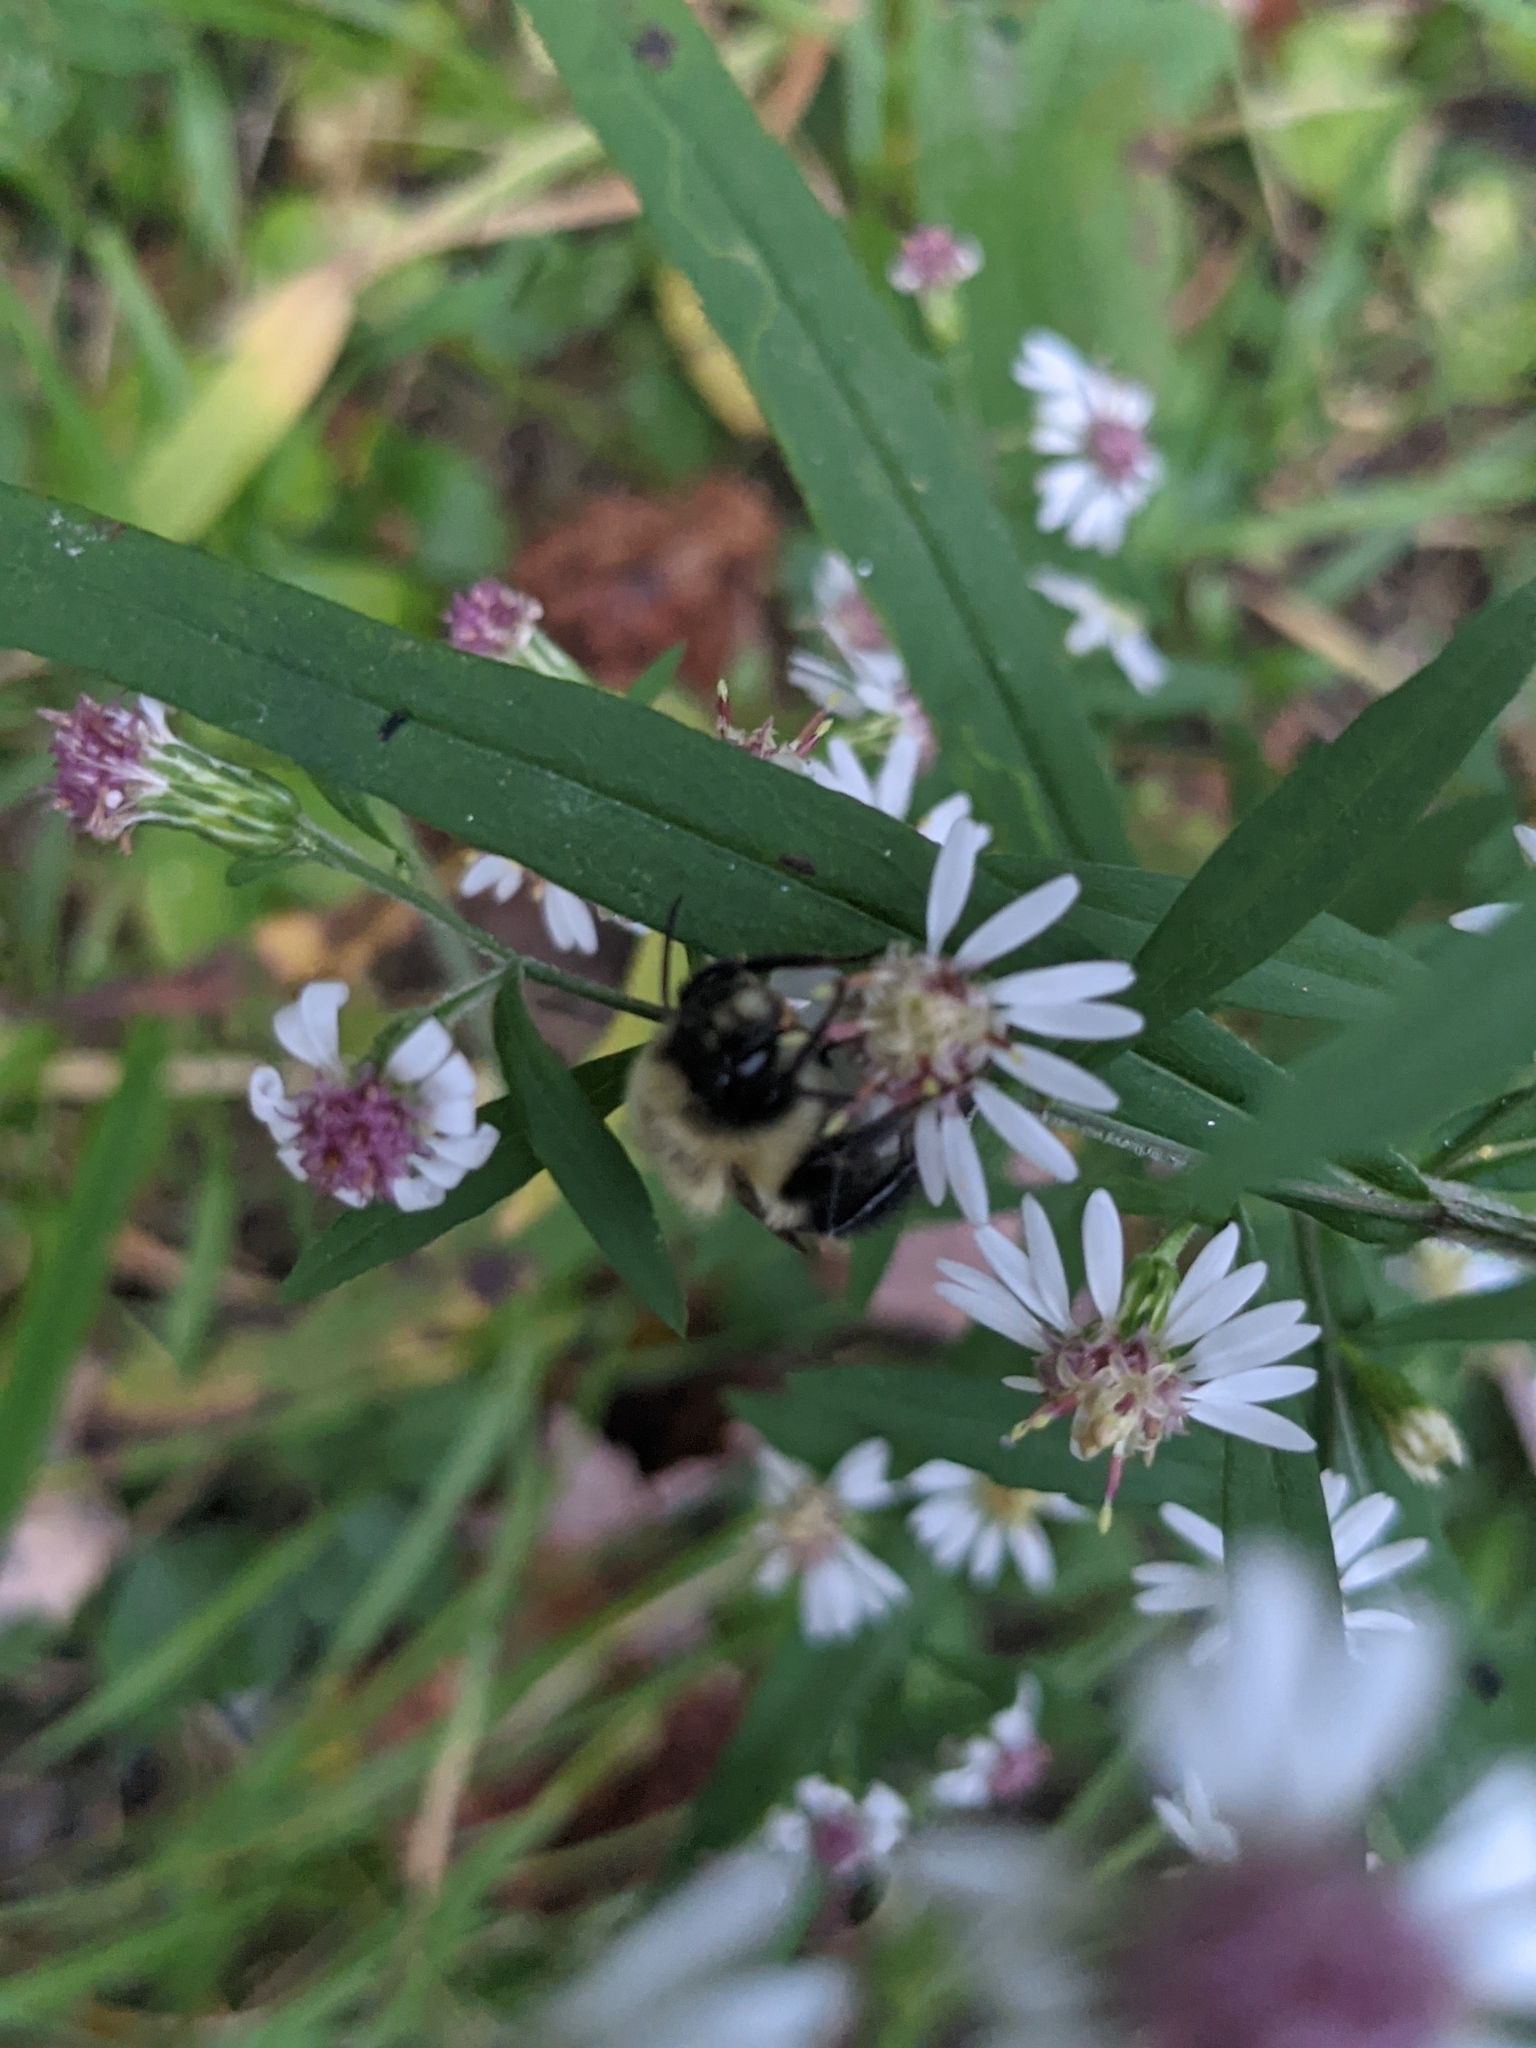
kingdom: Animalia
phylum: Arthropoda
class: Insecta
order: Hymenoptera
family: Apidae
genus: Bombus
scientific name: Bombus impatiens
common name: Common eastern bumble bee
